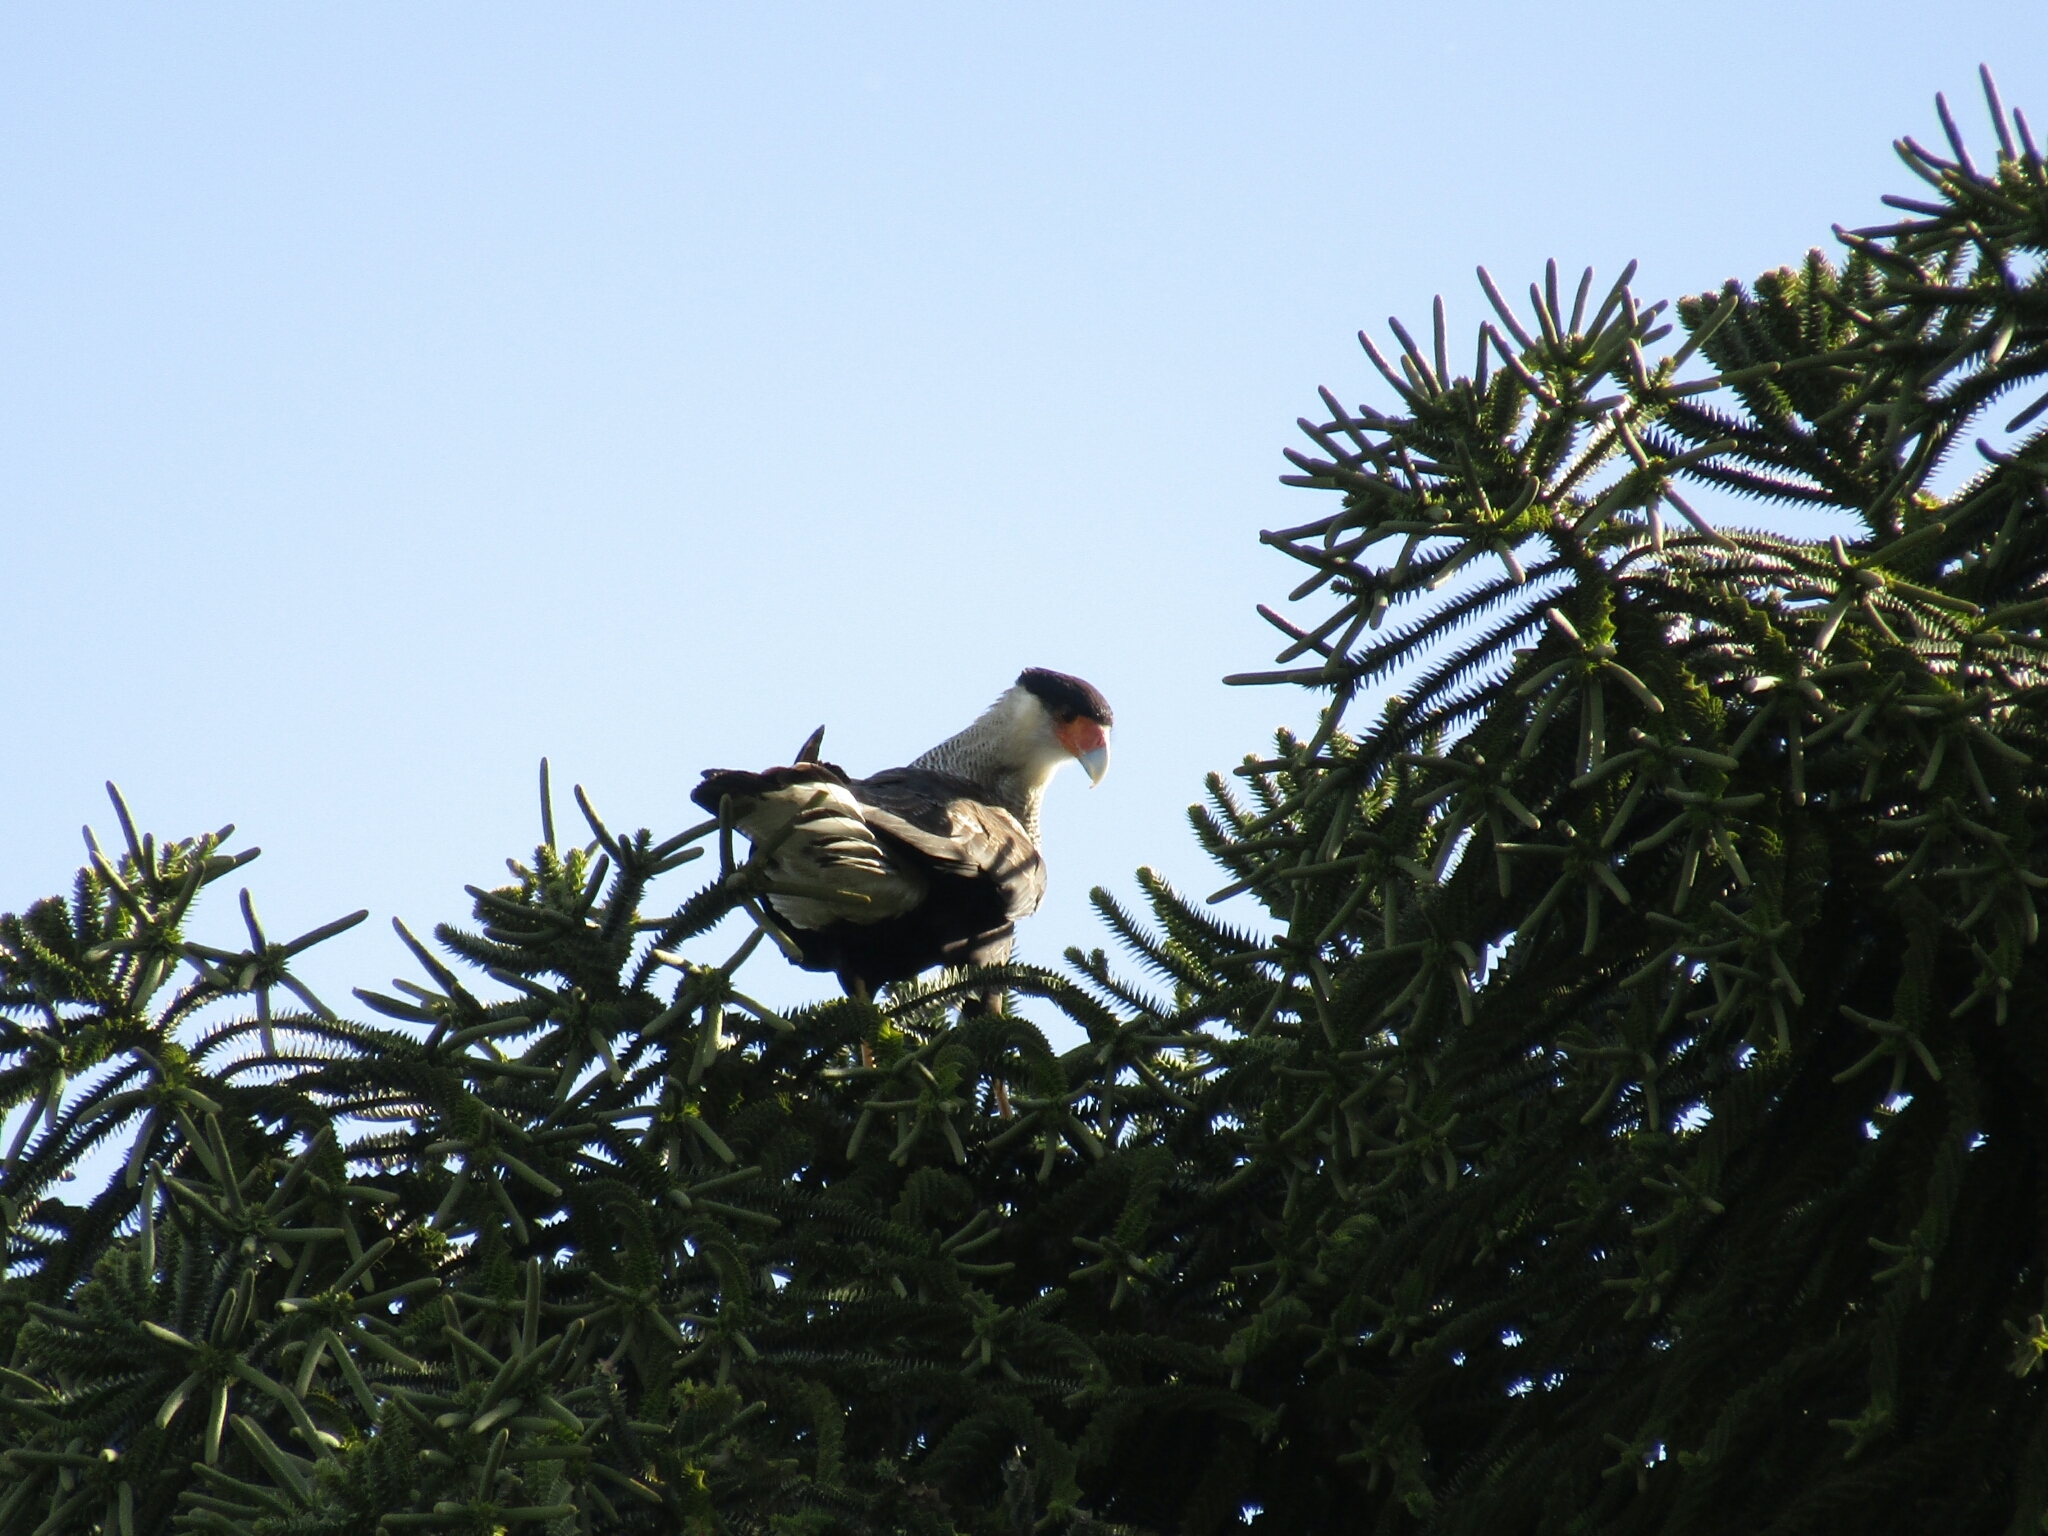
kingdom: Animalia
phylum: Chordata
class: Aves
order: Falconiformes
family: Falconidae
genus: Caracara
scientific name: Caracara plancus
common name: Southern caracara
